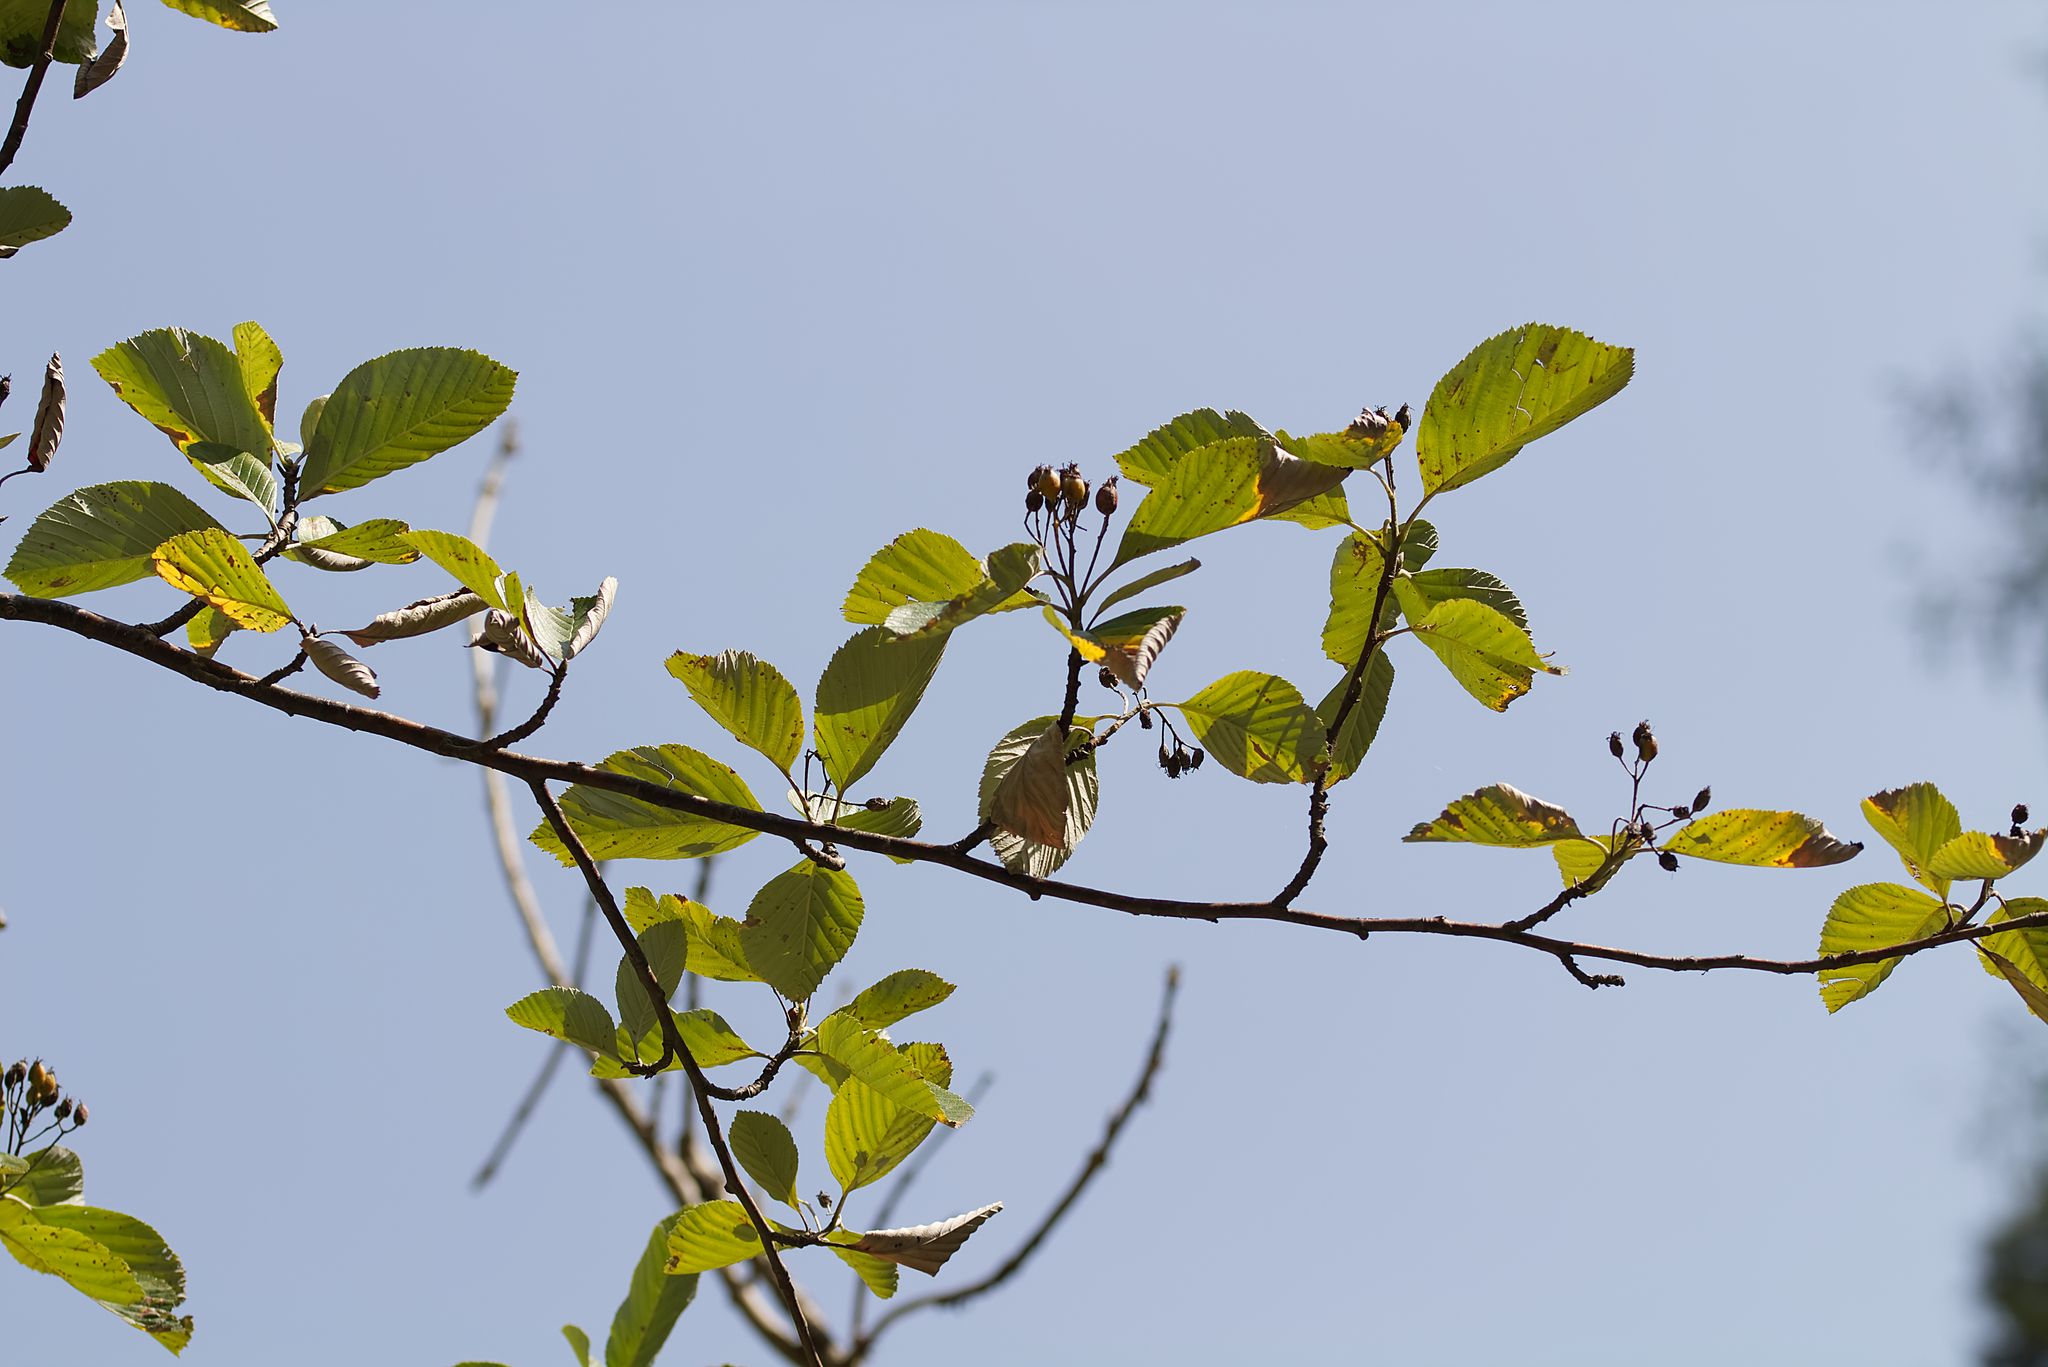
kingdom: Plantae
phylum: Tracheophyta
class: Magnoliopsida
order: Rosales
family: Rosaceae
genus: Aria
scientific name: Aria edulis
